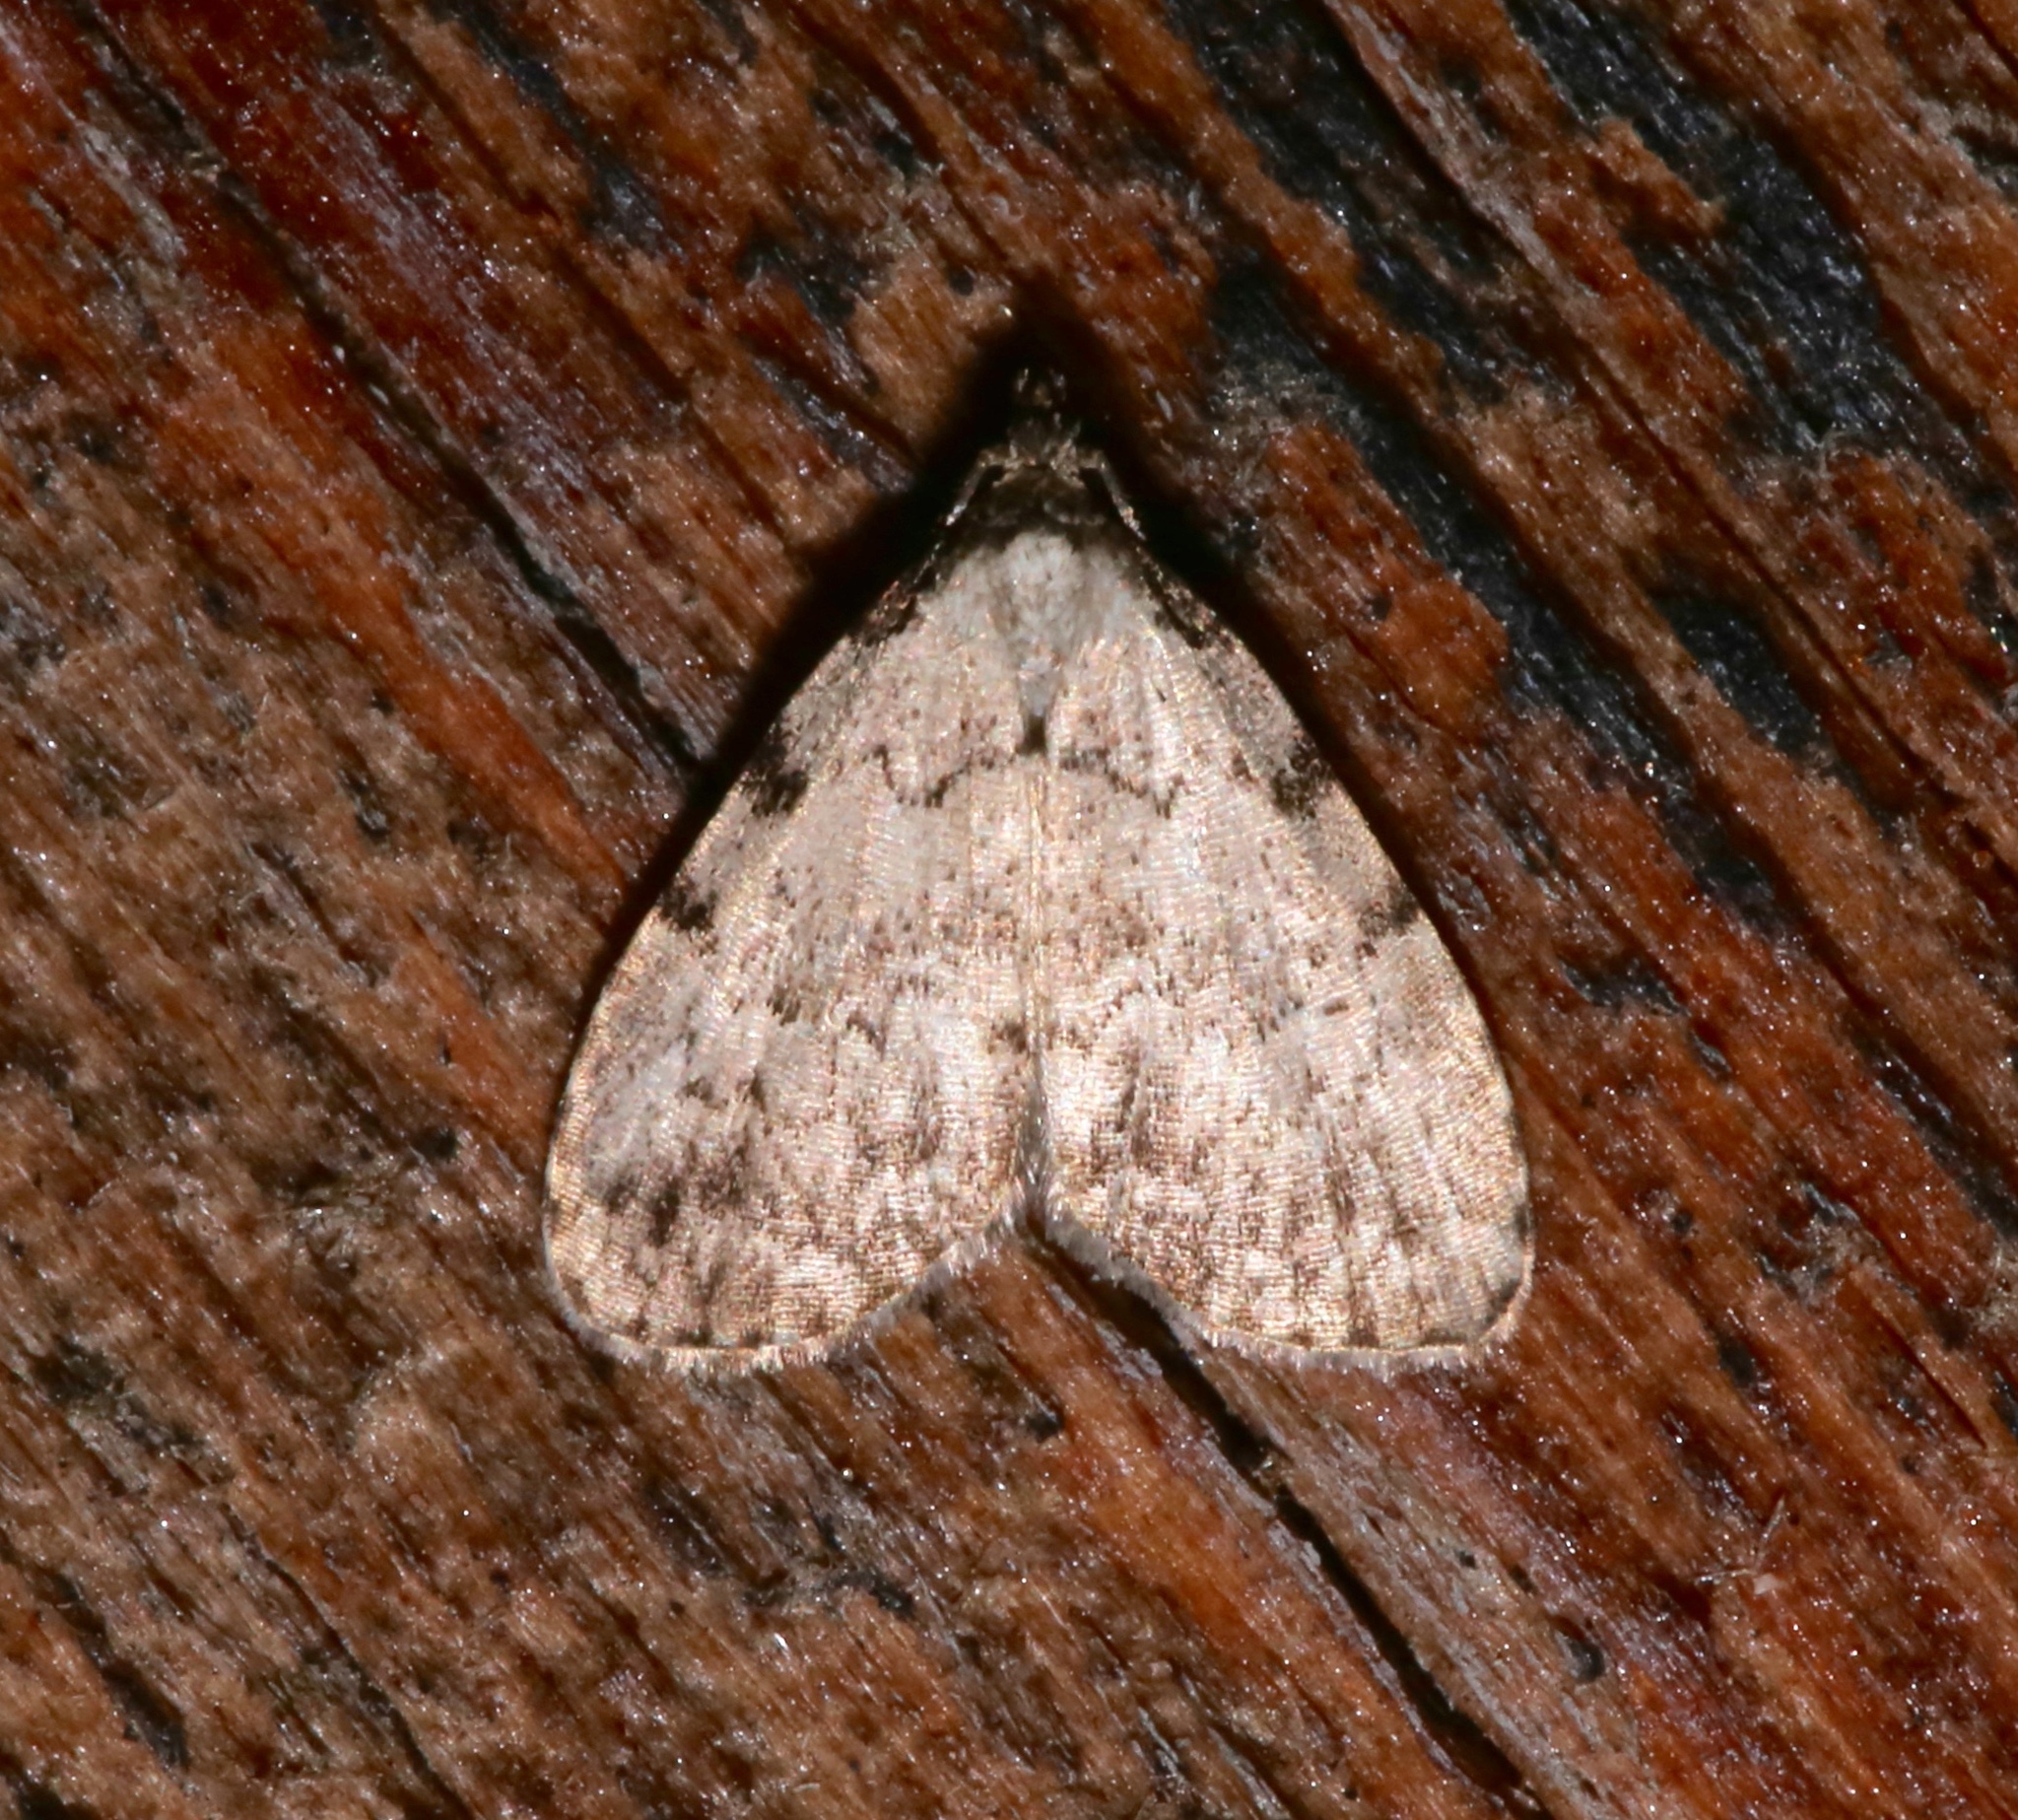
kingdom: Animalia
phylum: Arthropoda
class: Insecta
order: Lepidoptera
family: Erebidae
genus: Dyspyralis
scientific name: Dyspyralis puncticosta
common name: Spot-edged dyspyralis moth
